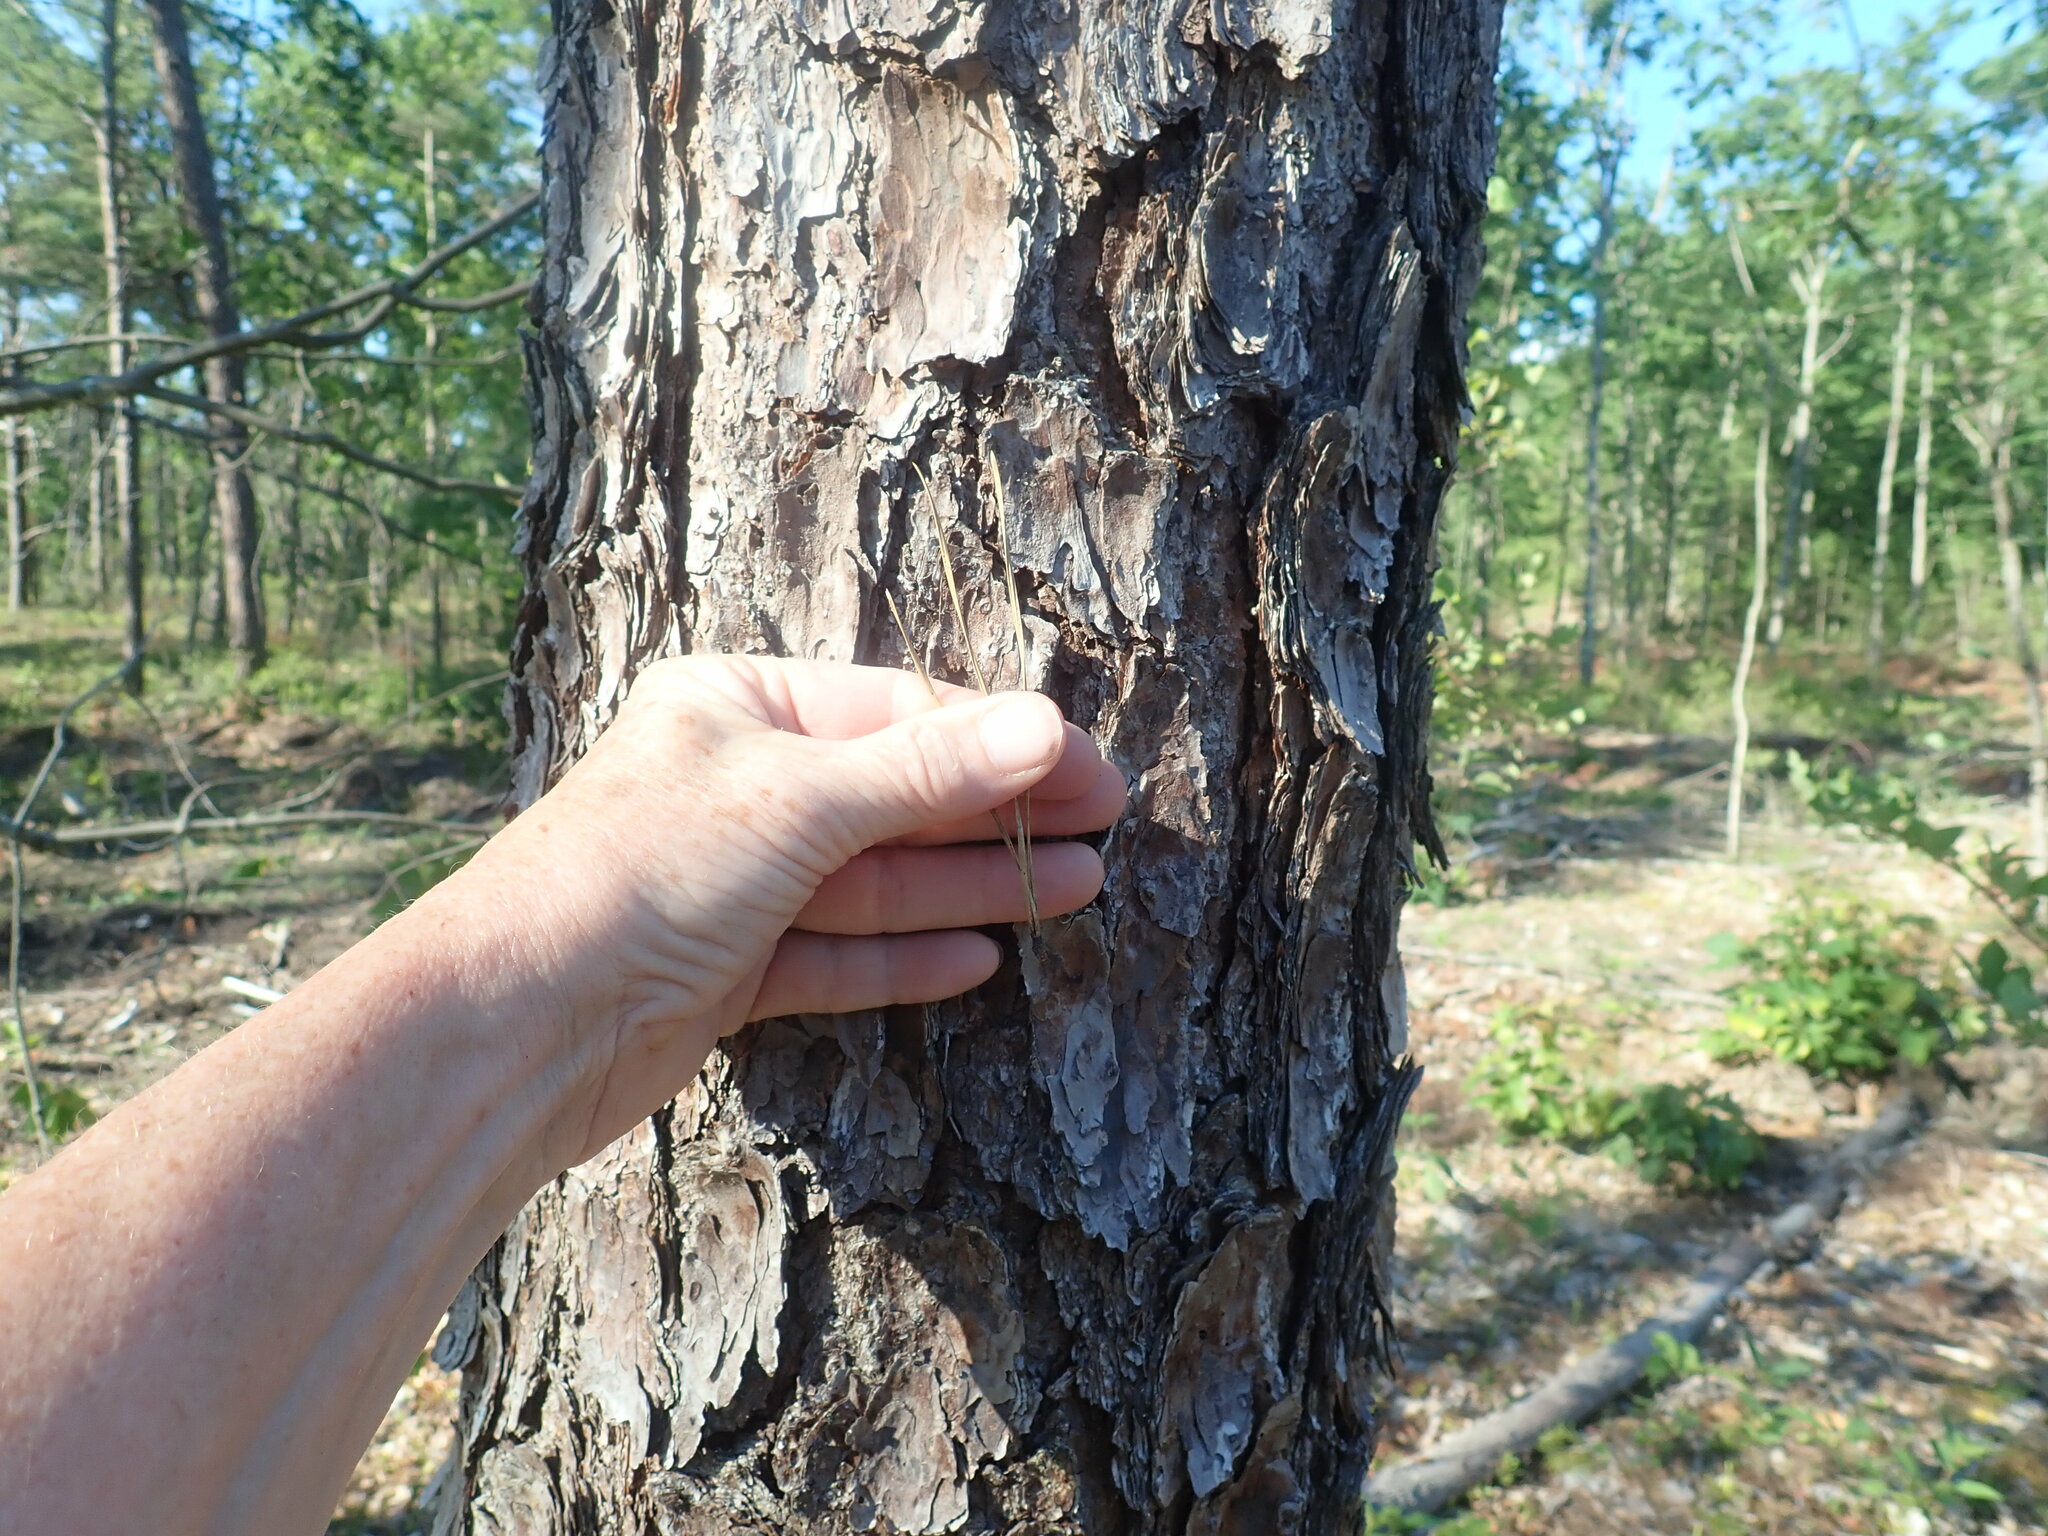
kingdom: Plantae
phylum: Tracheophyta
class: Pinopsida
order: Pinales
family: Pinaceae
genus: Pinus
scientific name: Pinus rigida
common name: Pitch pine
